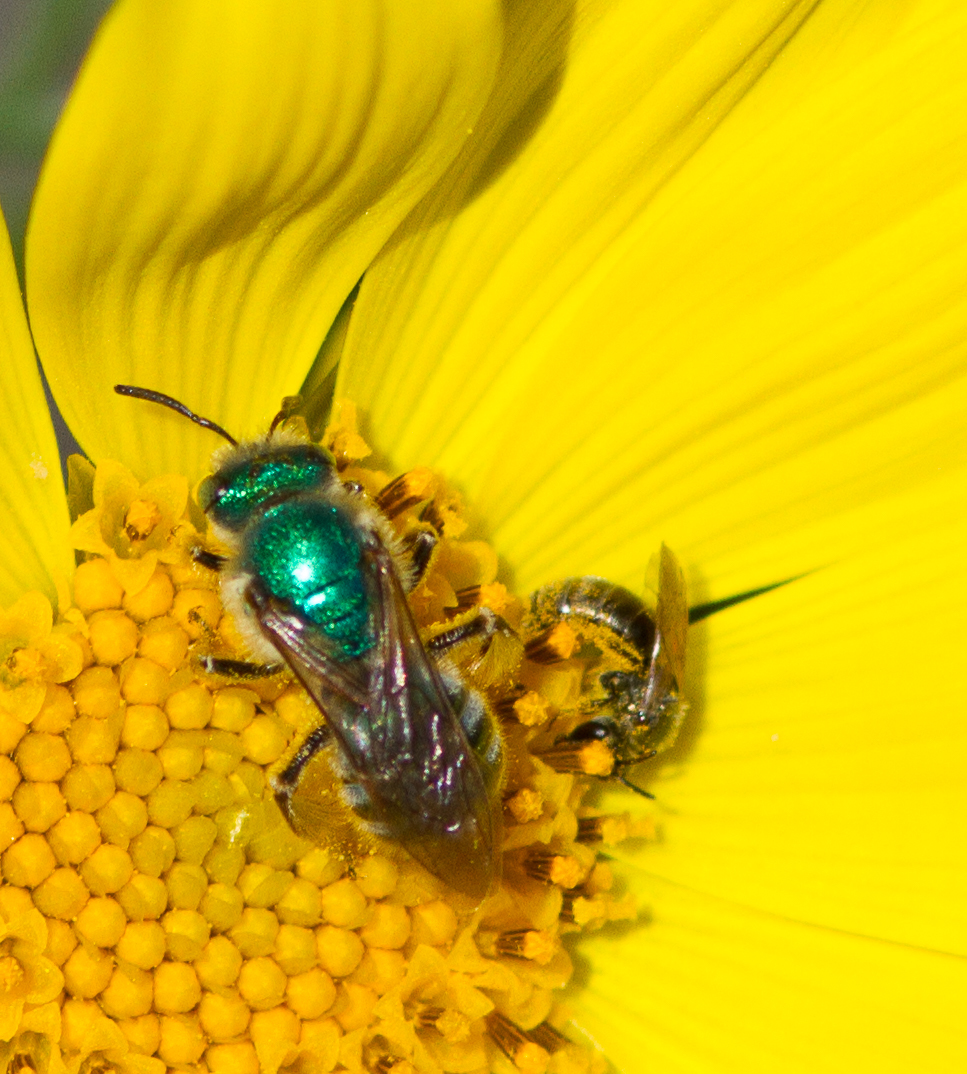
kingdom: Animalia
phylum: Arthropoda
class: Insecta
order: Hymenoptera
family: Halictidae
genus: Agapostemon
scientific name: Agapostemon texanus
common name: Texas striped sweat bee
